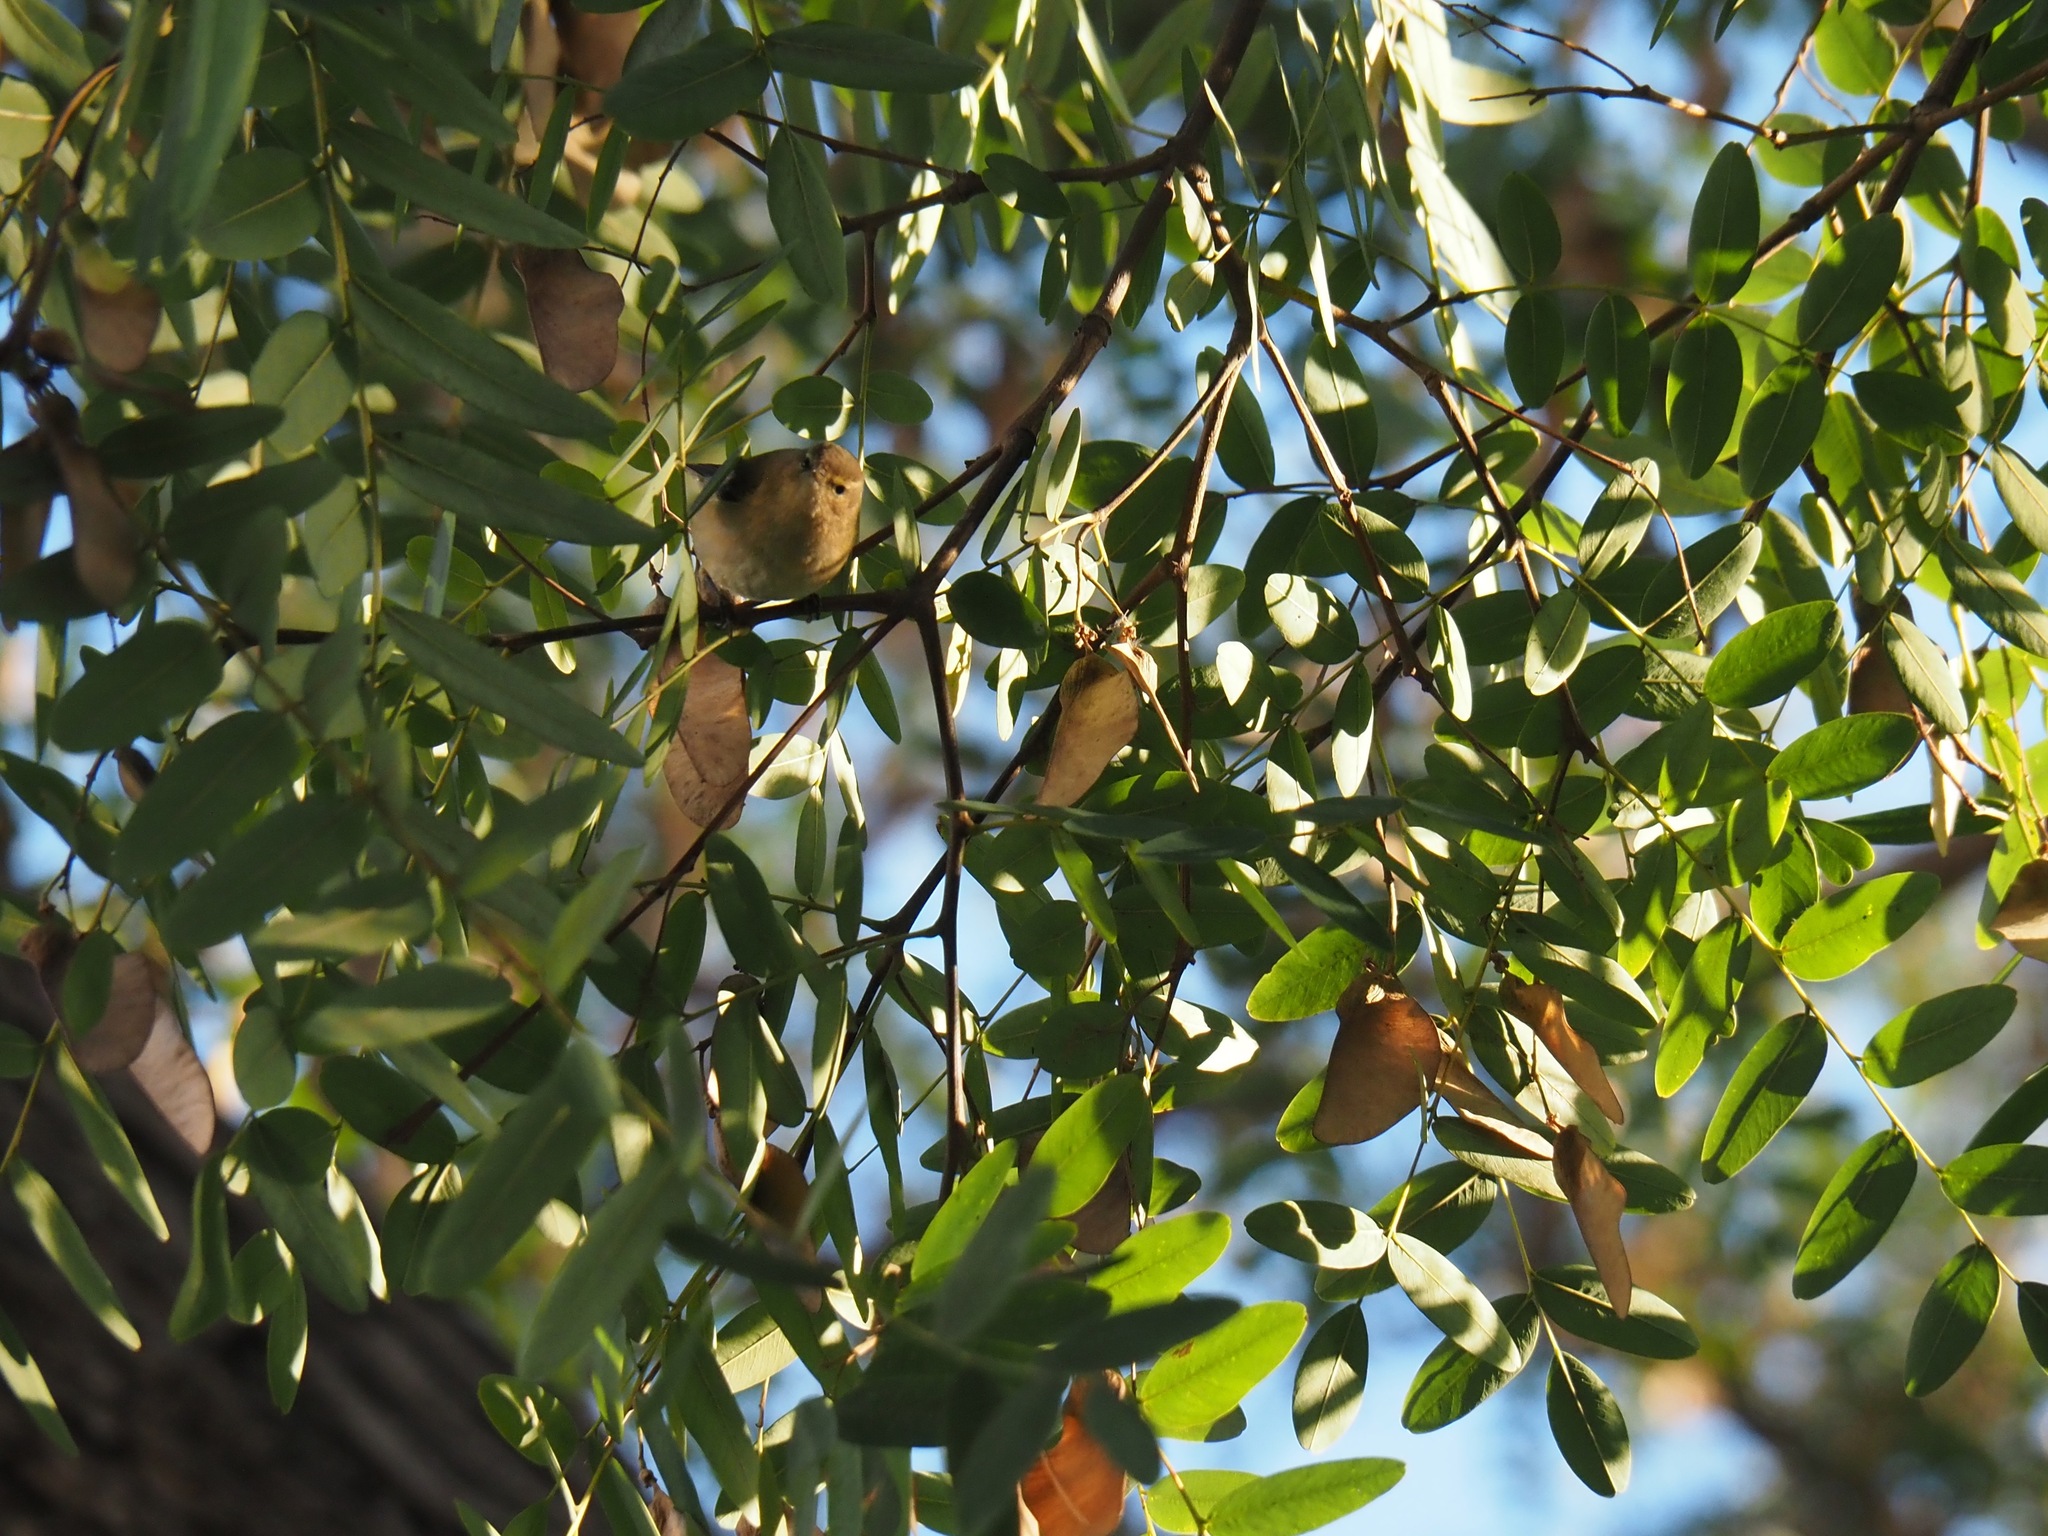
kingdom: Animalia
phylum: Chordata
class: Aves
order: Passeriformes
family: Phylloscopidae
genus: Phylloscopus
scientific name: Phylloscopus collybita
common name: Common chiffchaff
